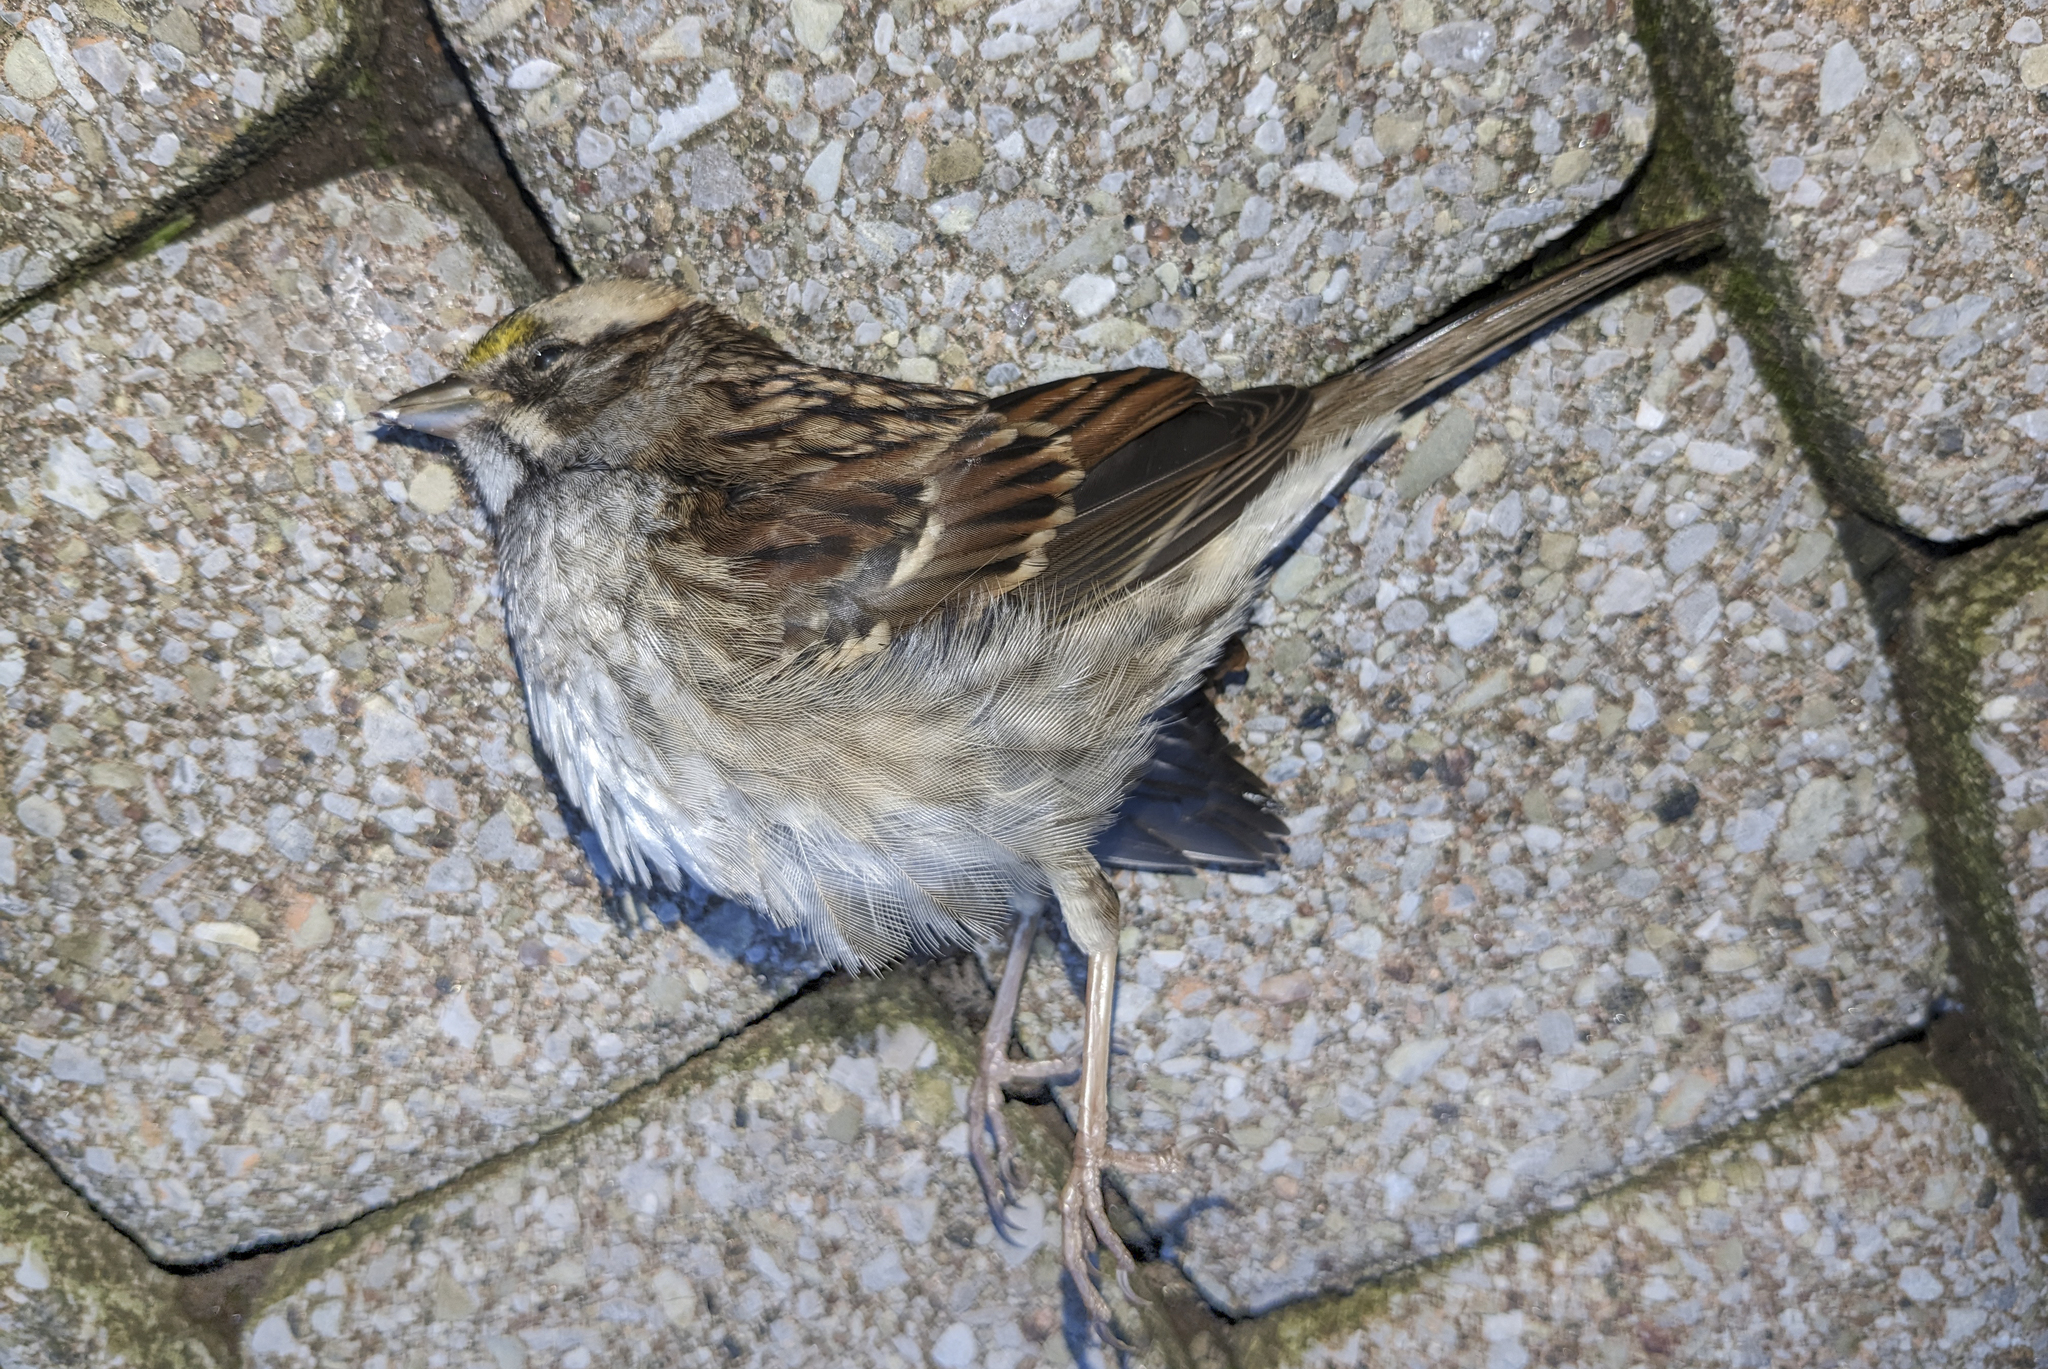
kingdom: Animalia
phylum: Chordata
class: Aves
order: Passeriformes
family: Passerellidae
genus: Zonotrichia
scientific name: Zonotrichia albicollis
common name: White-throated sparrow
